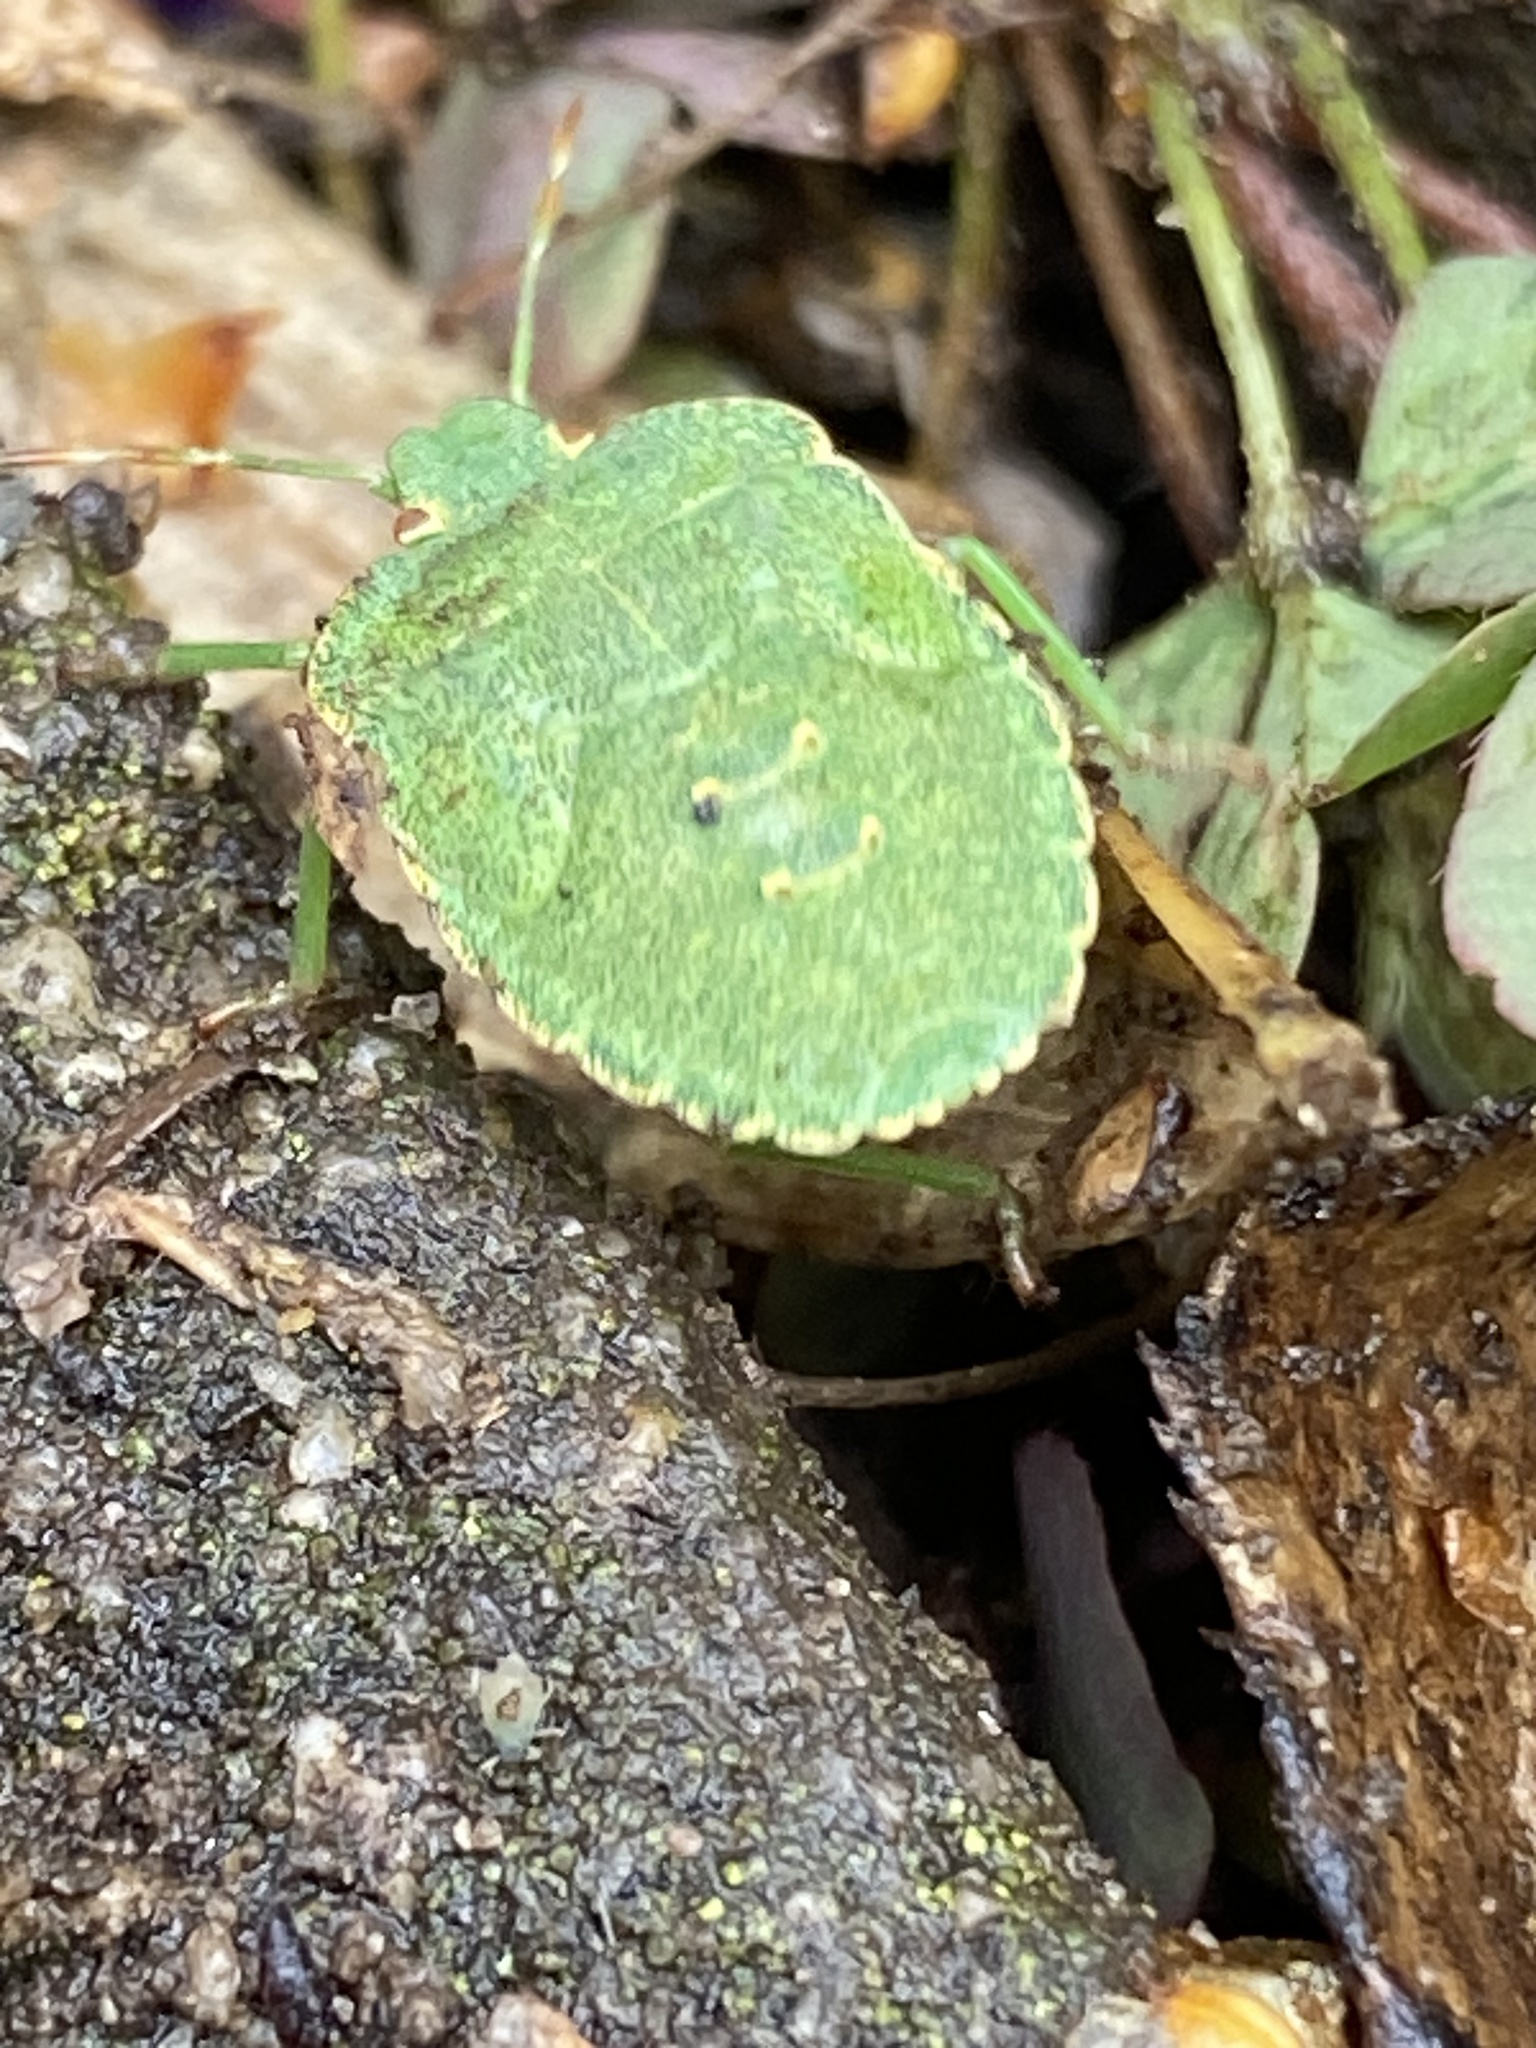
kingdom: Animalia
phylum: Arthropoda
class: Insecta
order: Hemiptera
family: Pentatomidae
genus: Palomena
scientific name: Palomena prasina
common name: Green shieldbug
